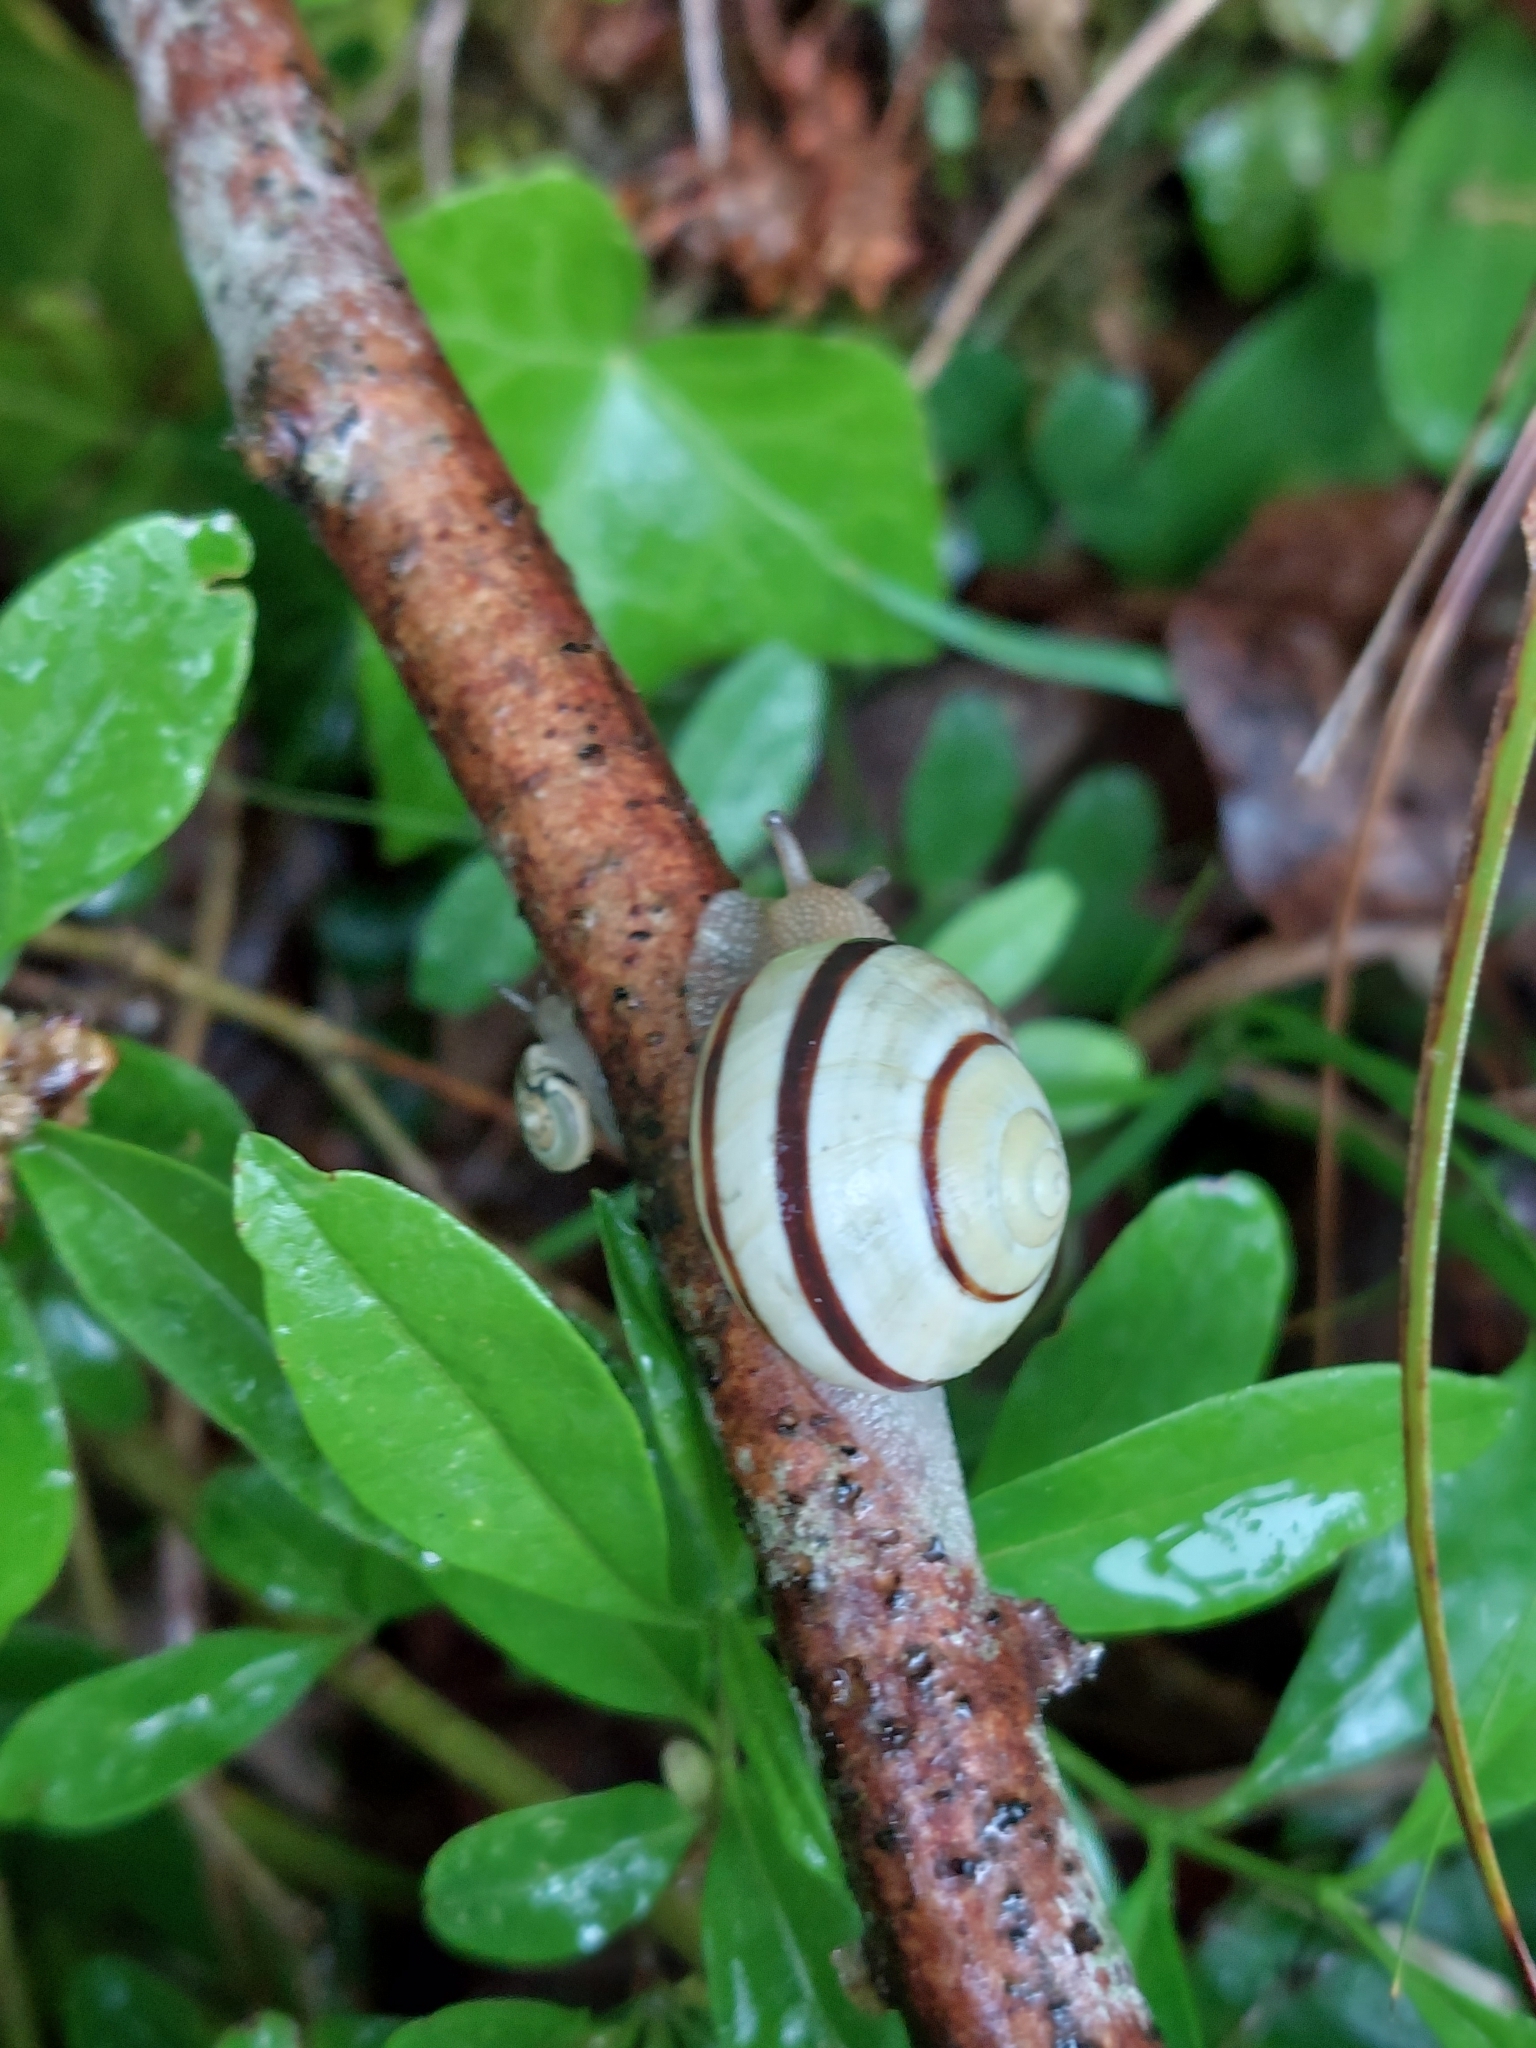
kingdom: Animalia
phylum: Mollusca
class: Gastropoda
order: Stylommatophora
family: Helicidae
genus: Cepaea
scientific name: Cepaea nemoralis
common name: Grovesnail
